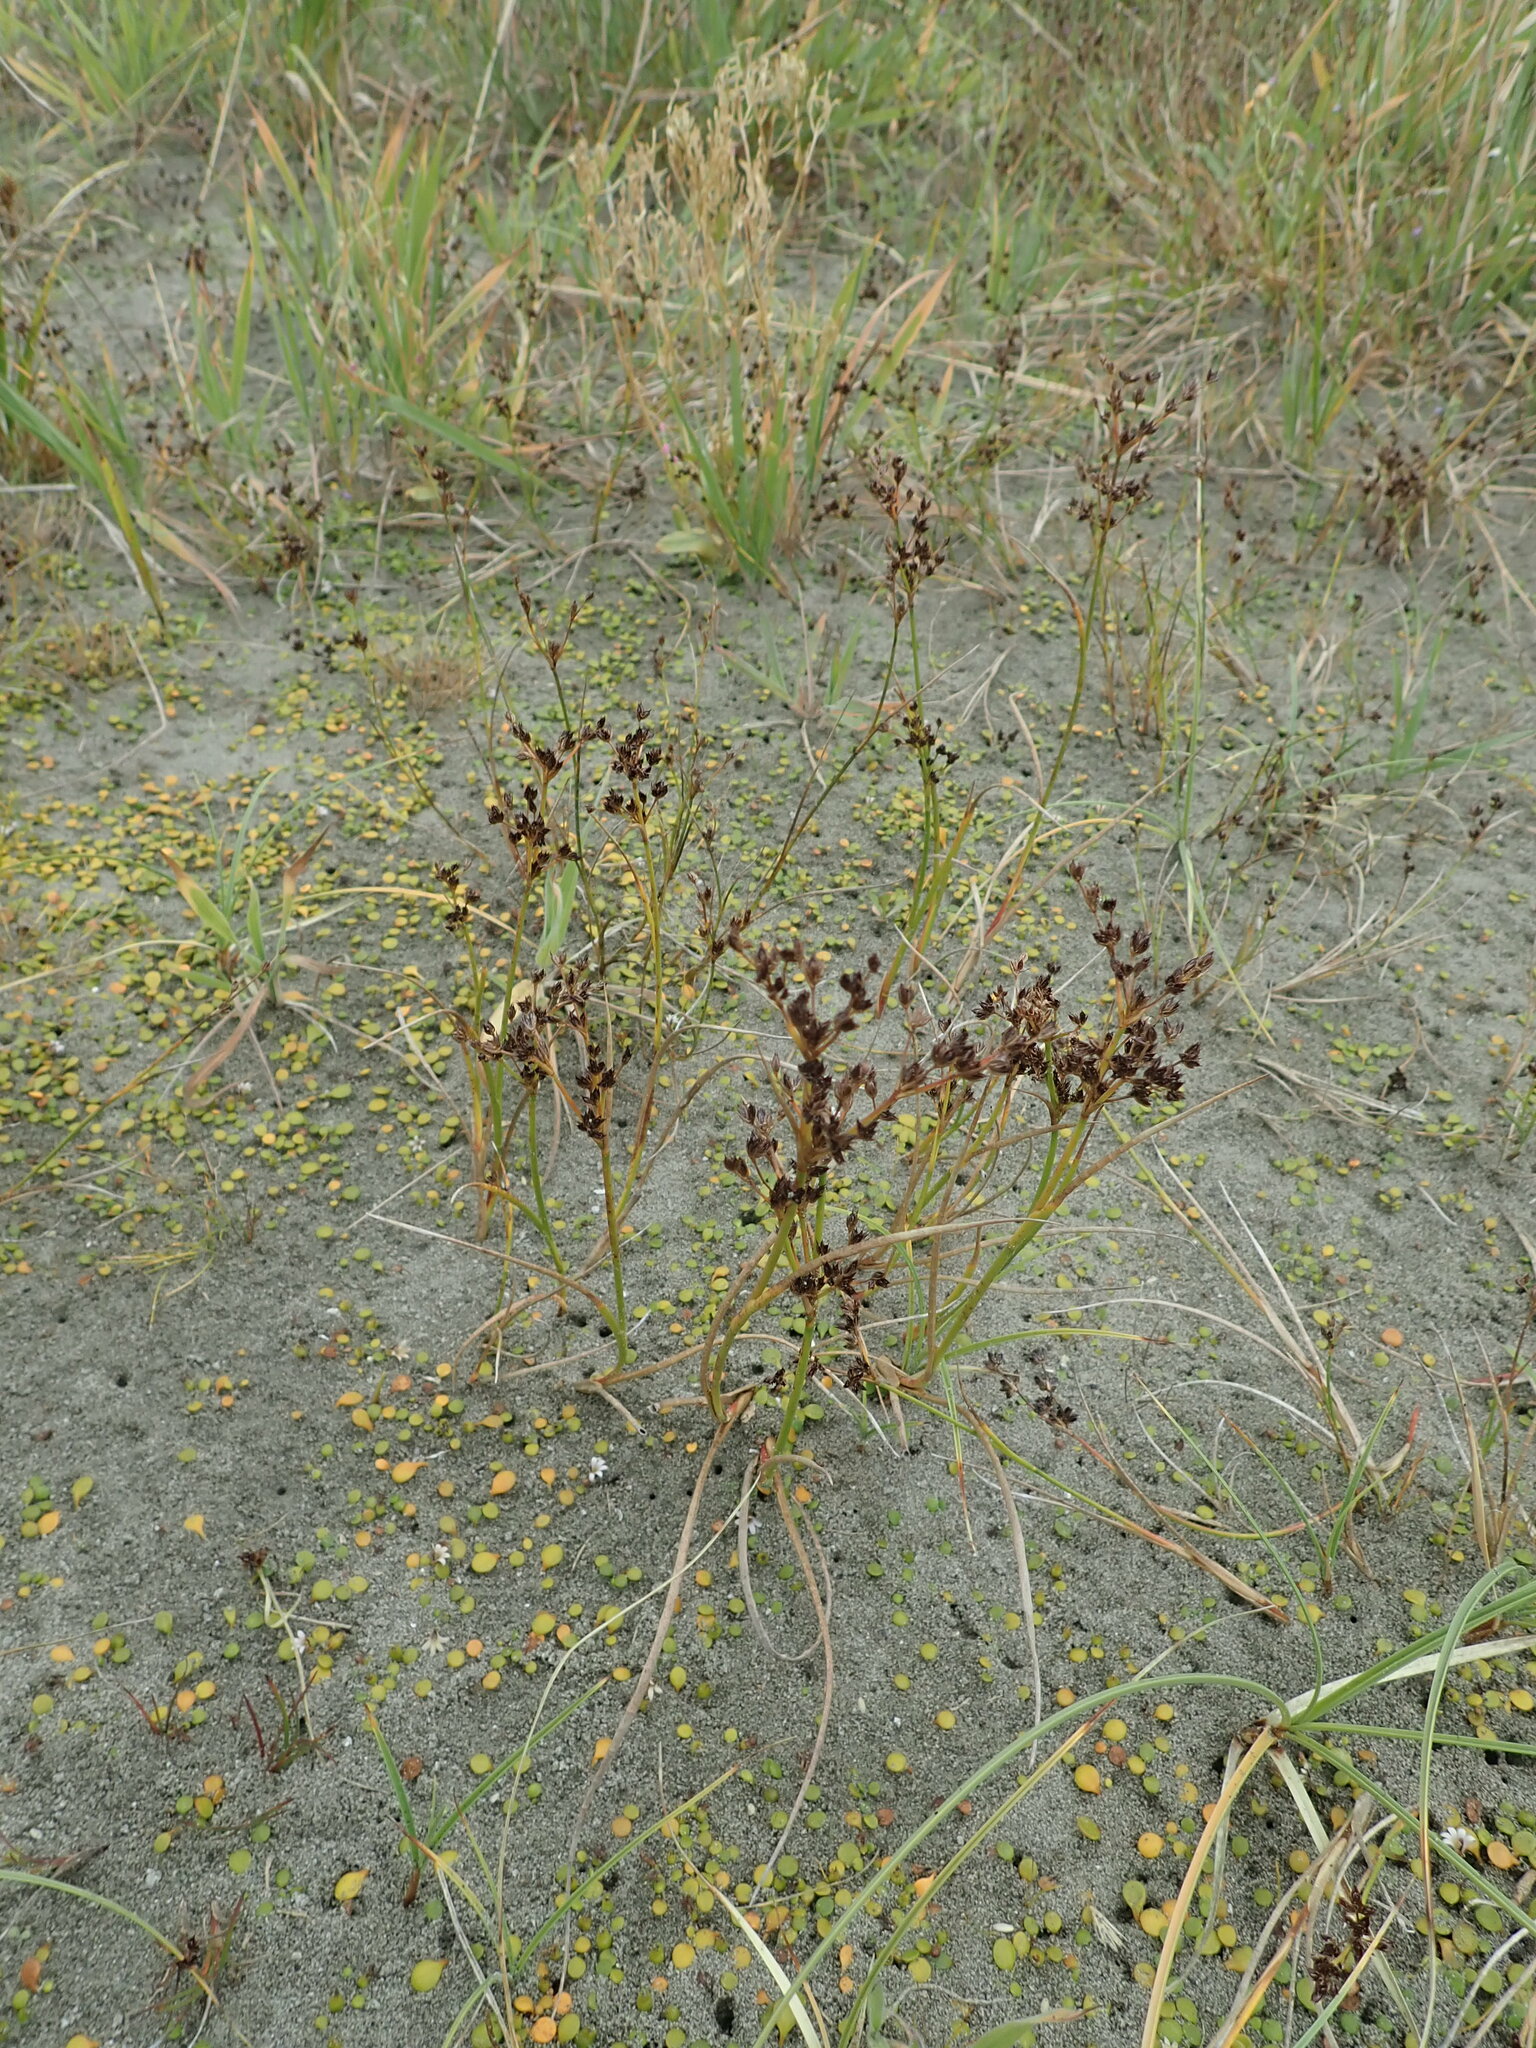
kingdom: Plantae
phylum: Tracheophyta
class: Liliopsida
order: Poales
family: Juncaceae
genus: Juncus
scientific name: Juncus articulatus
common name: Jointed rush
